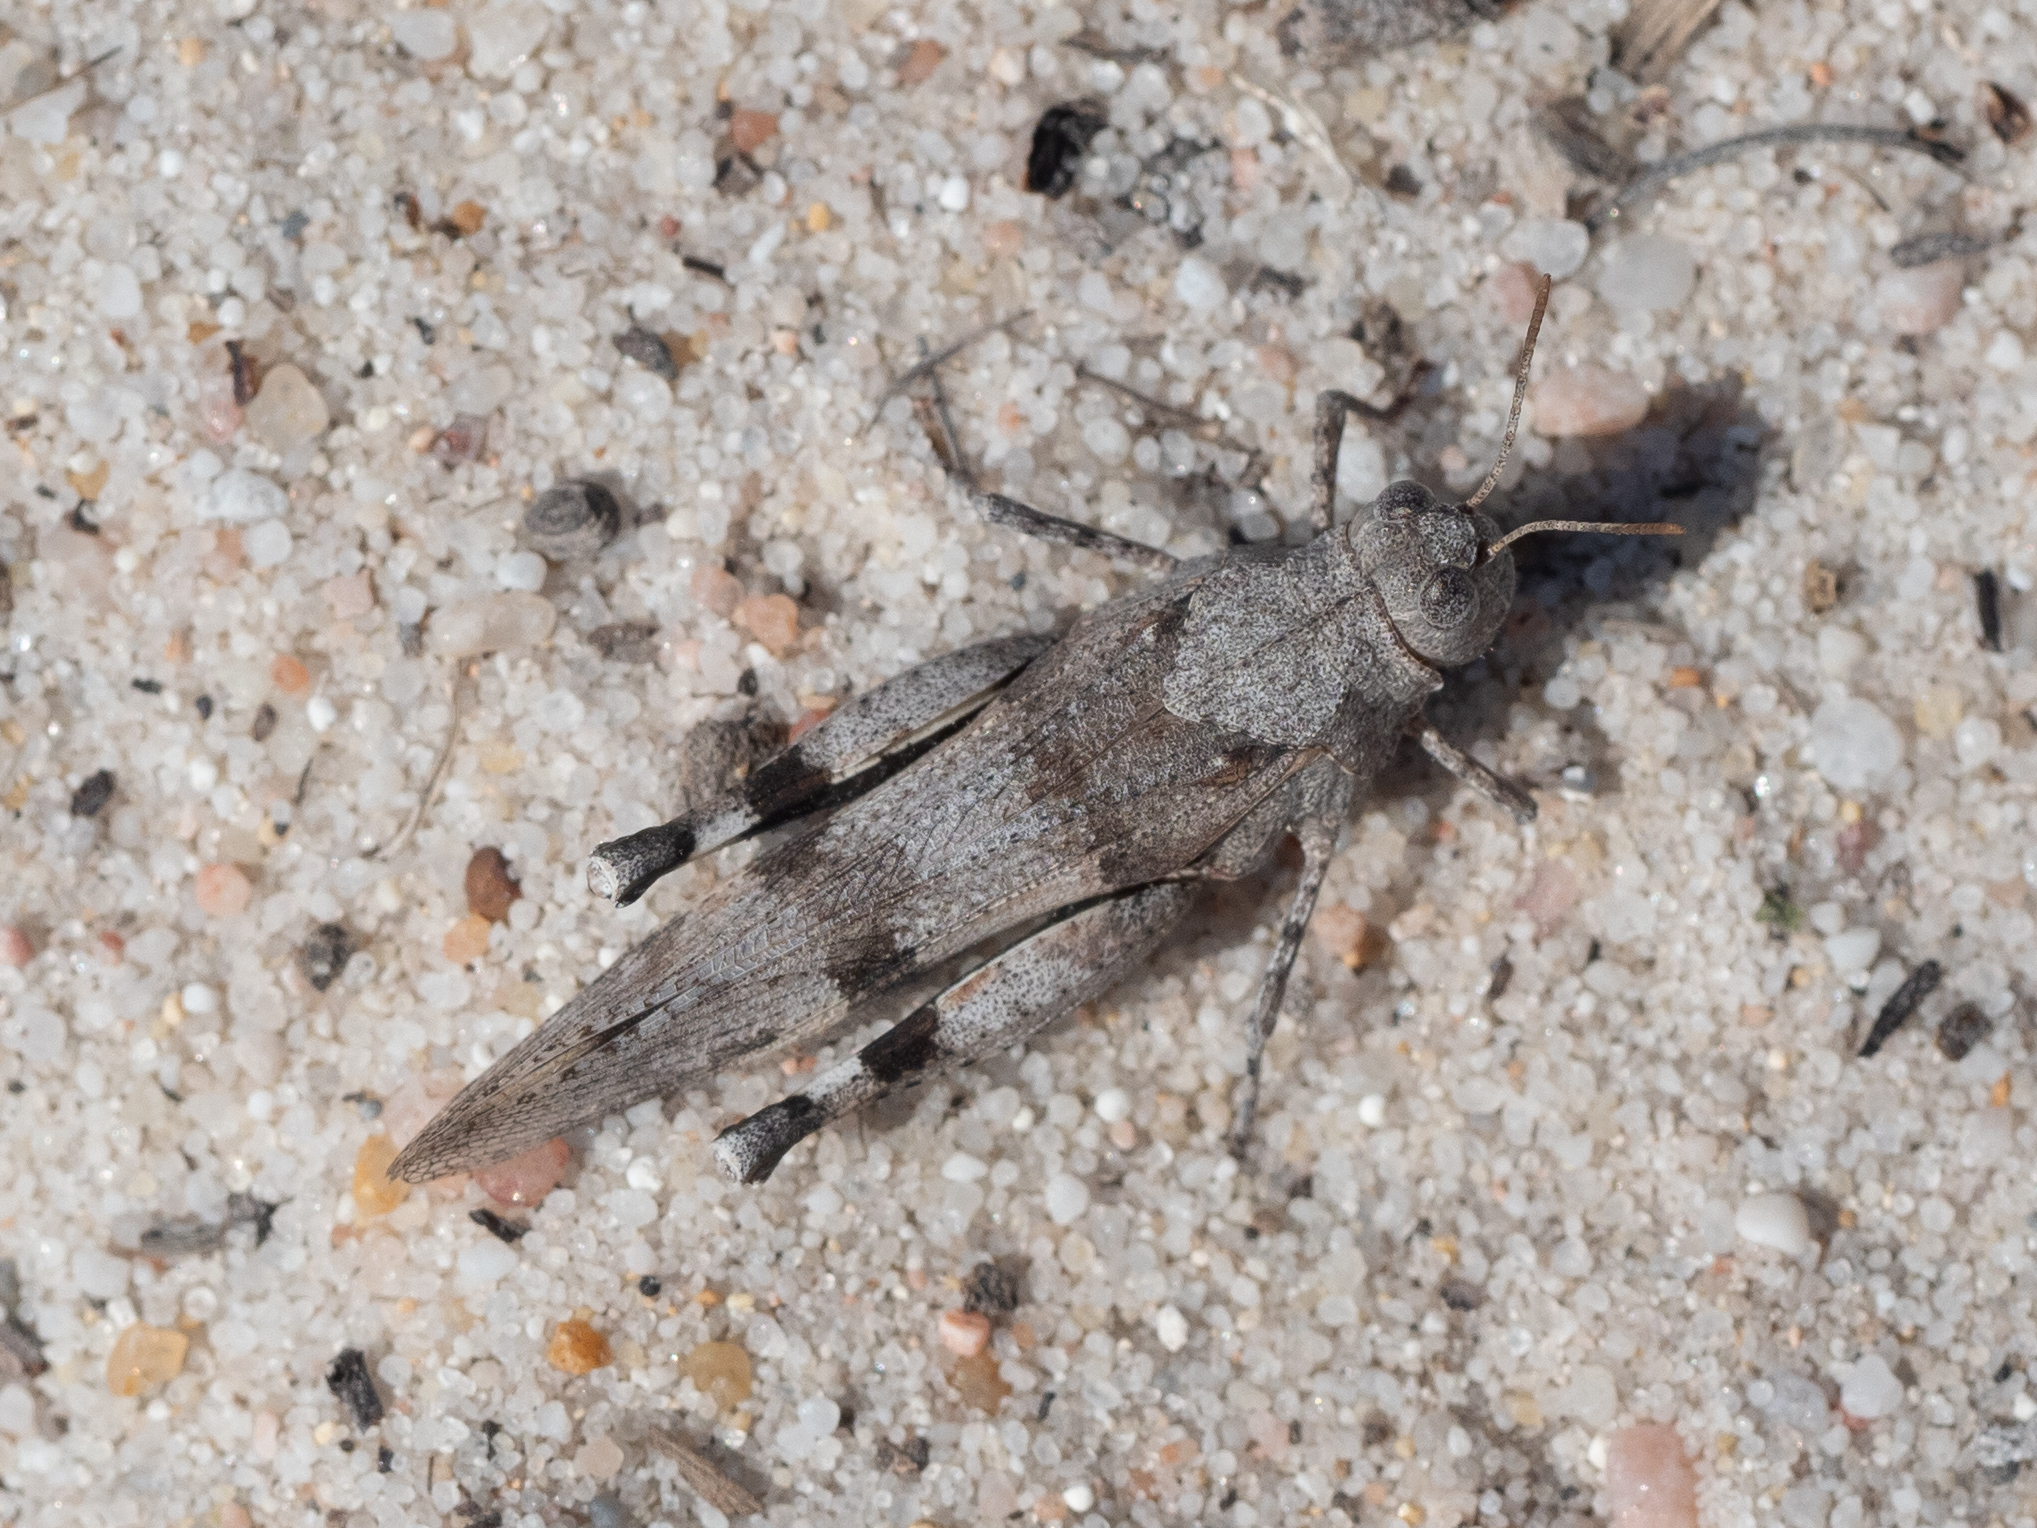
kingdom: Animalia
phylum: Arthropoda
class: Insecta
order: Orthoptera
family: Acrididae
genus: Oedipoda
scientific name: Oedipoda caerulescens
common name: Blue-winged grasshopper
